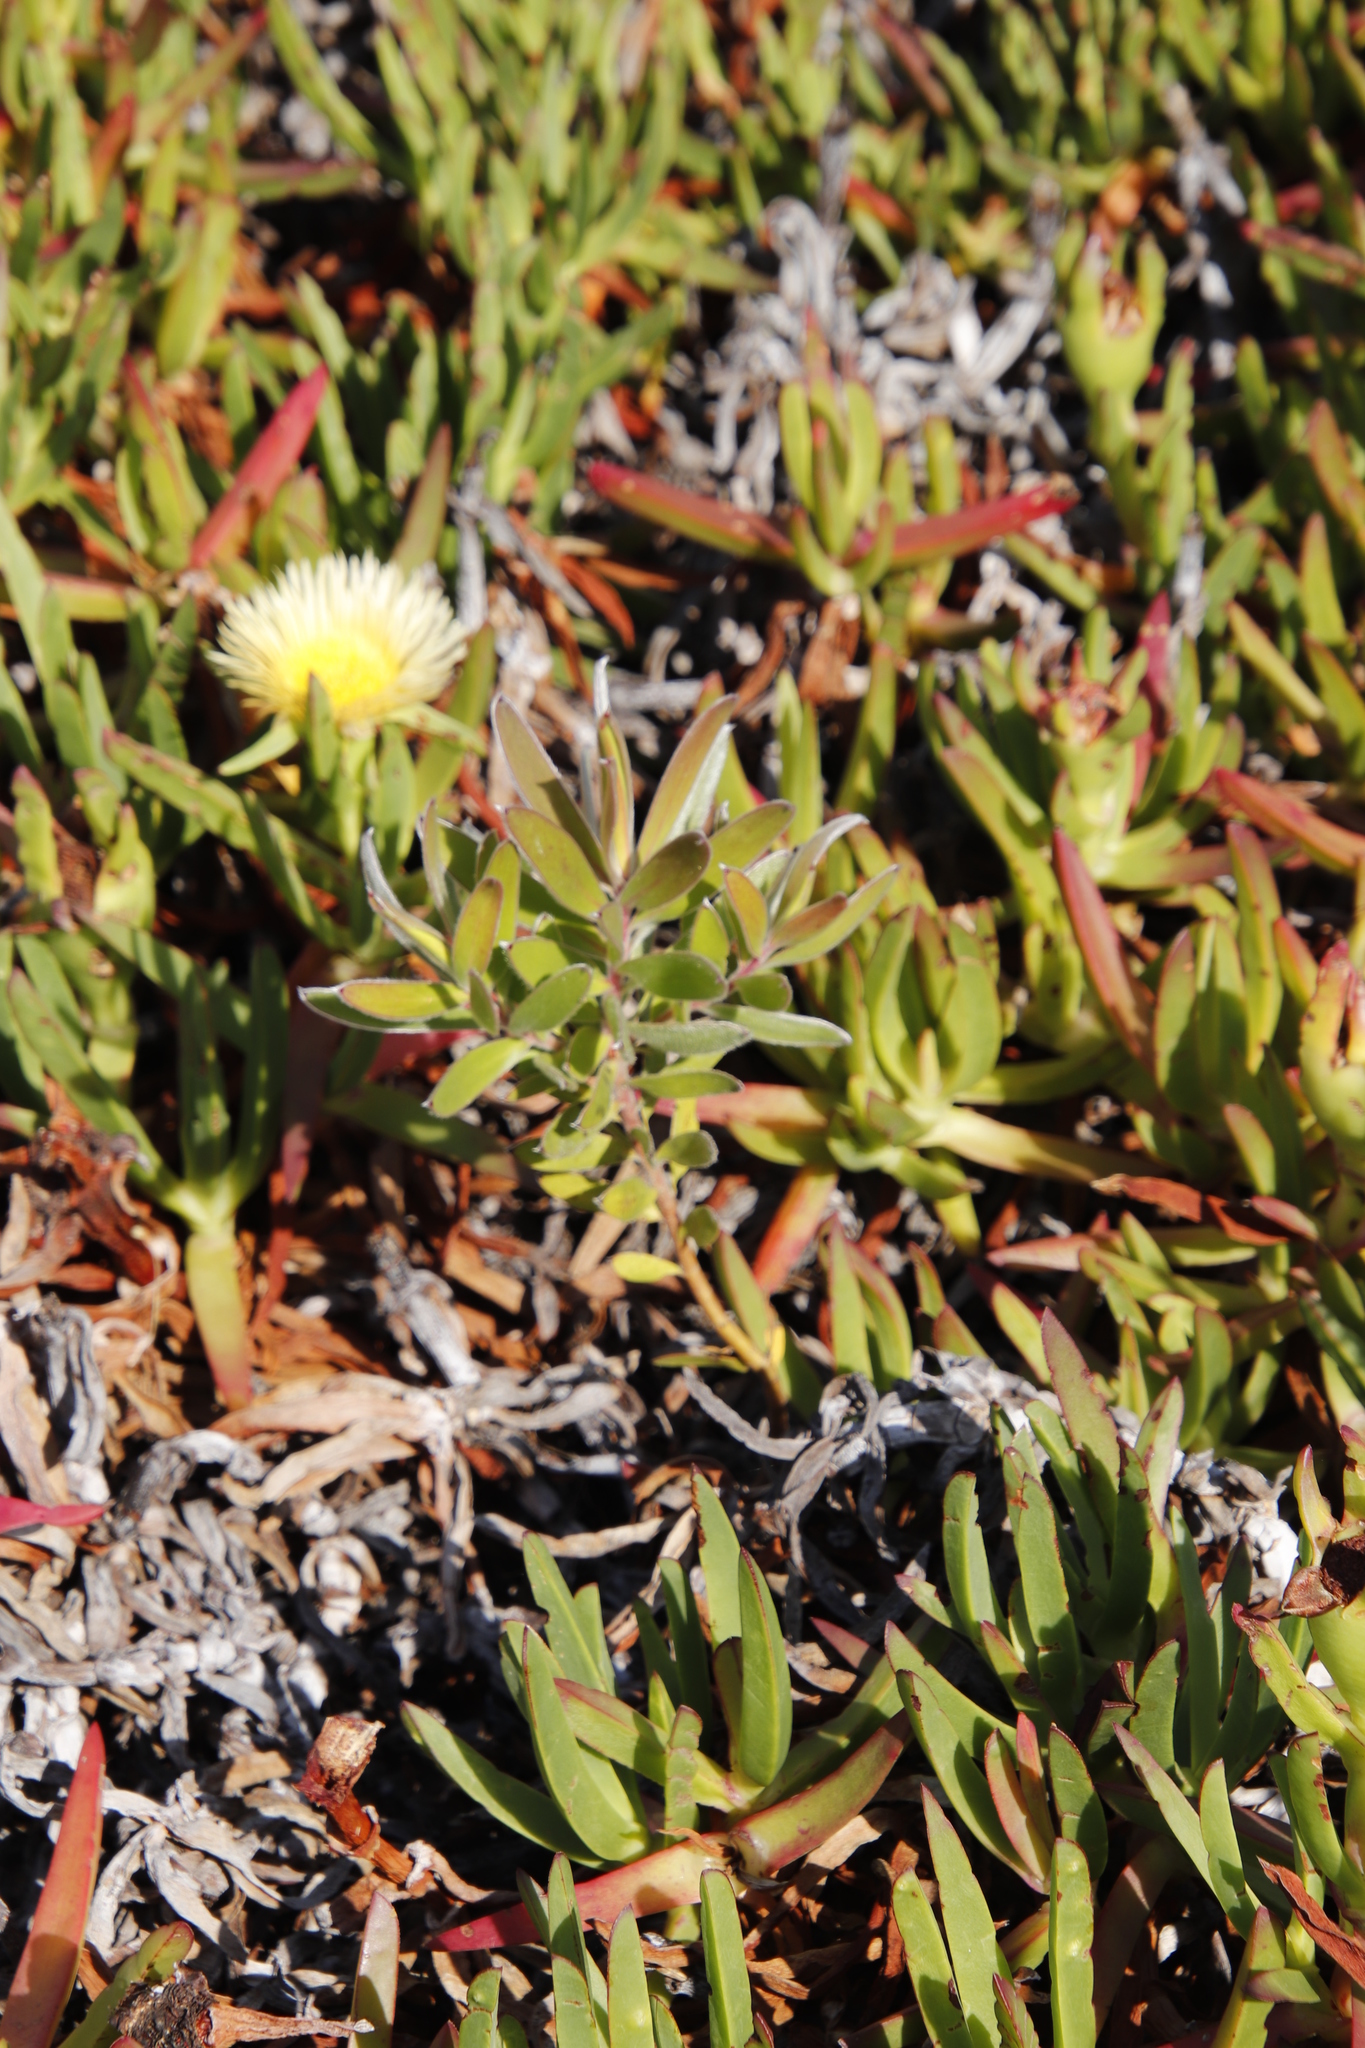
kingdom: Plantae
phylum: Tracheophyta
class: Magnoliopsida
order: Proteales
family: Proteaceae
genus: Leucadendron
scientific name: Leucadendron laureolum
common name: Golden sunshinebush
